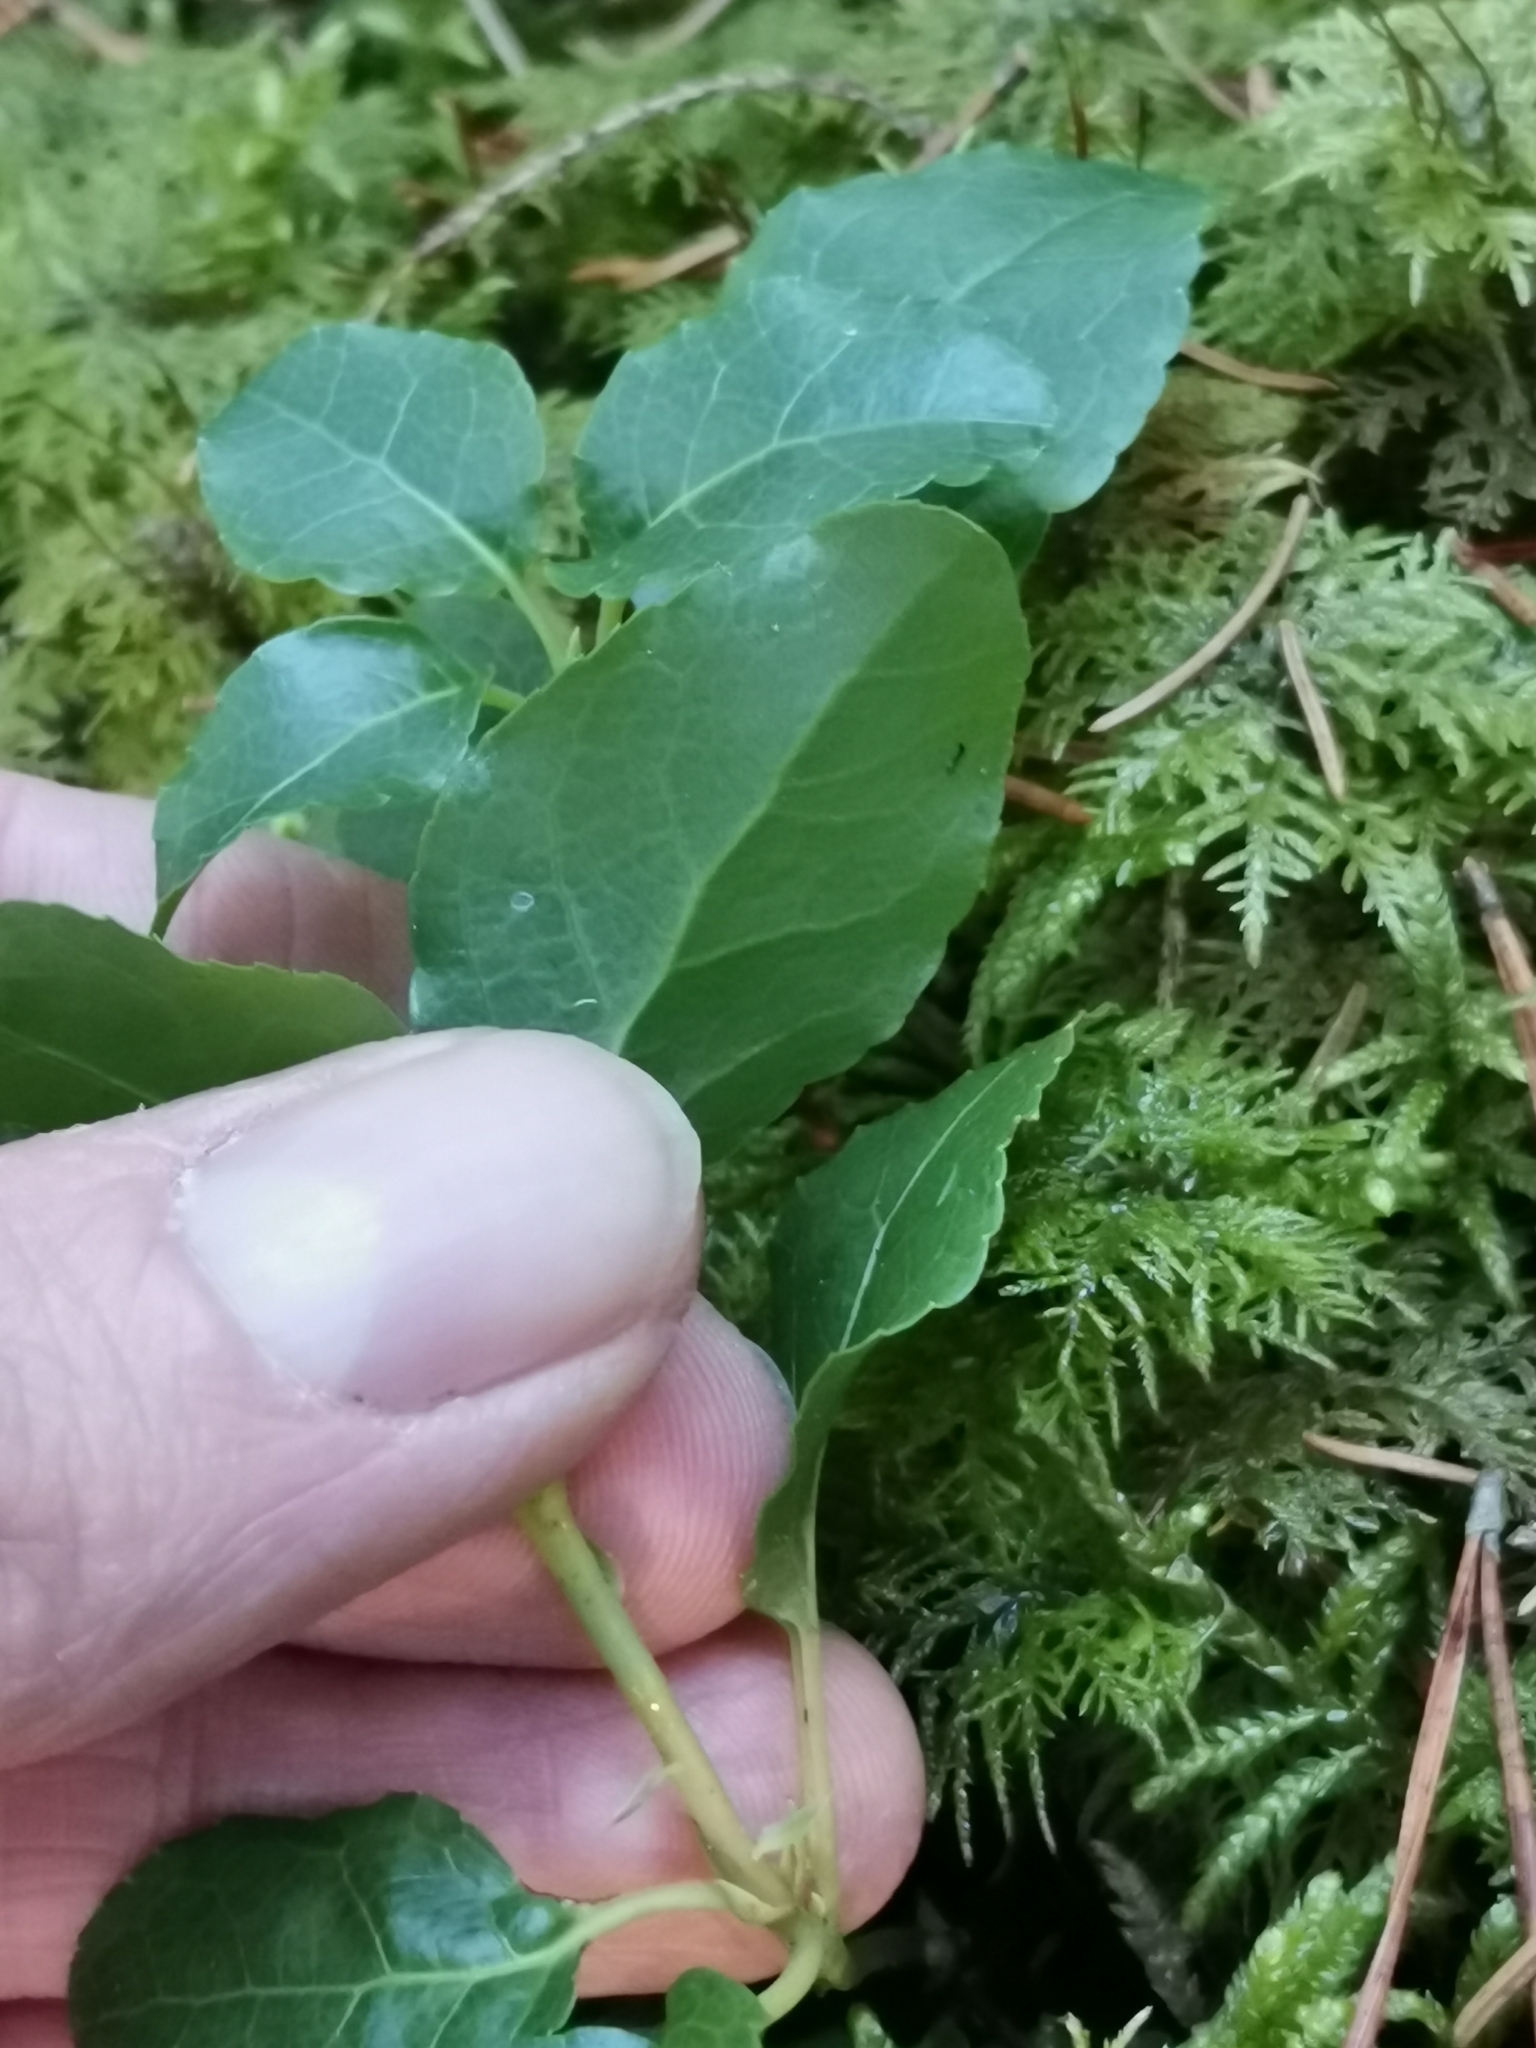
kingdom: Plantae
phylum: Tracheophyta
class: Magnoliopsida
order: Ericales
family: Ericaceae
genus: Orthilia
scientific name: Orthilia secunda
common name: One-sided orthilia
